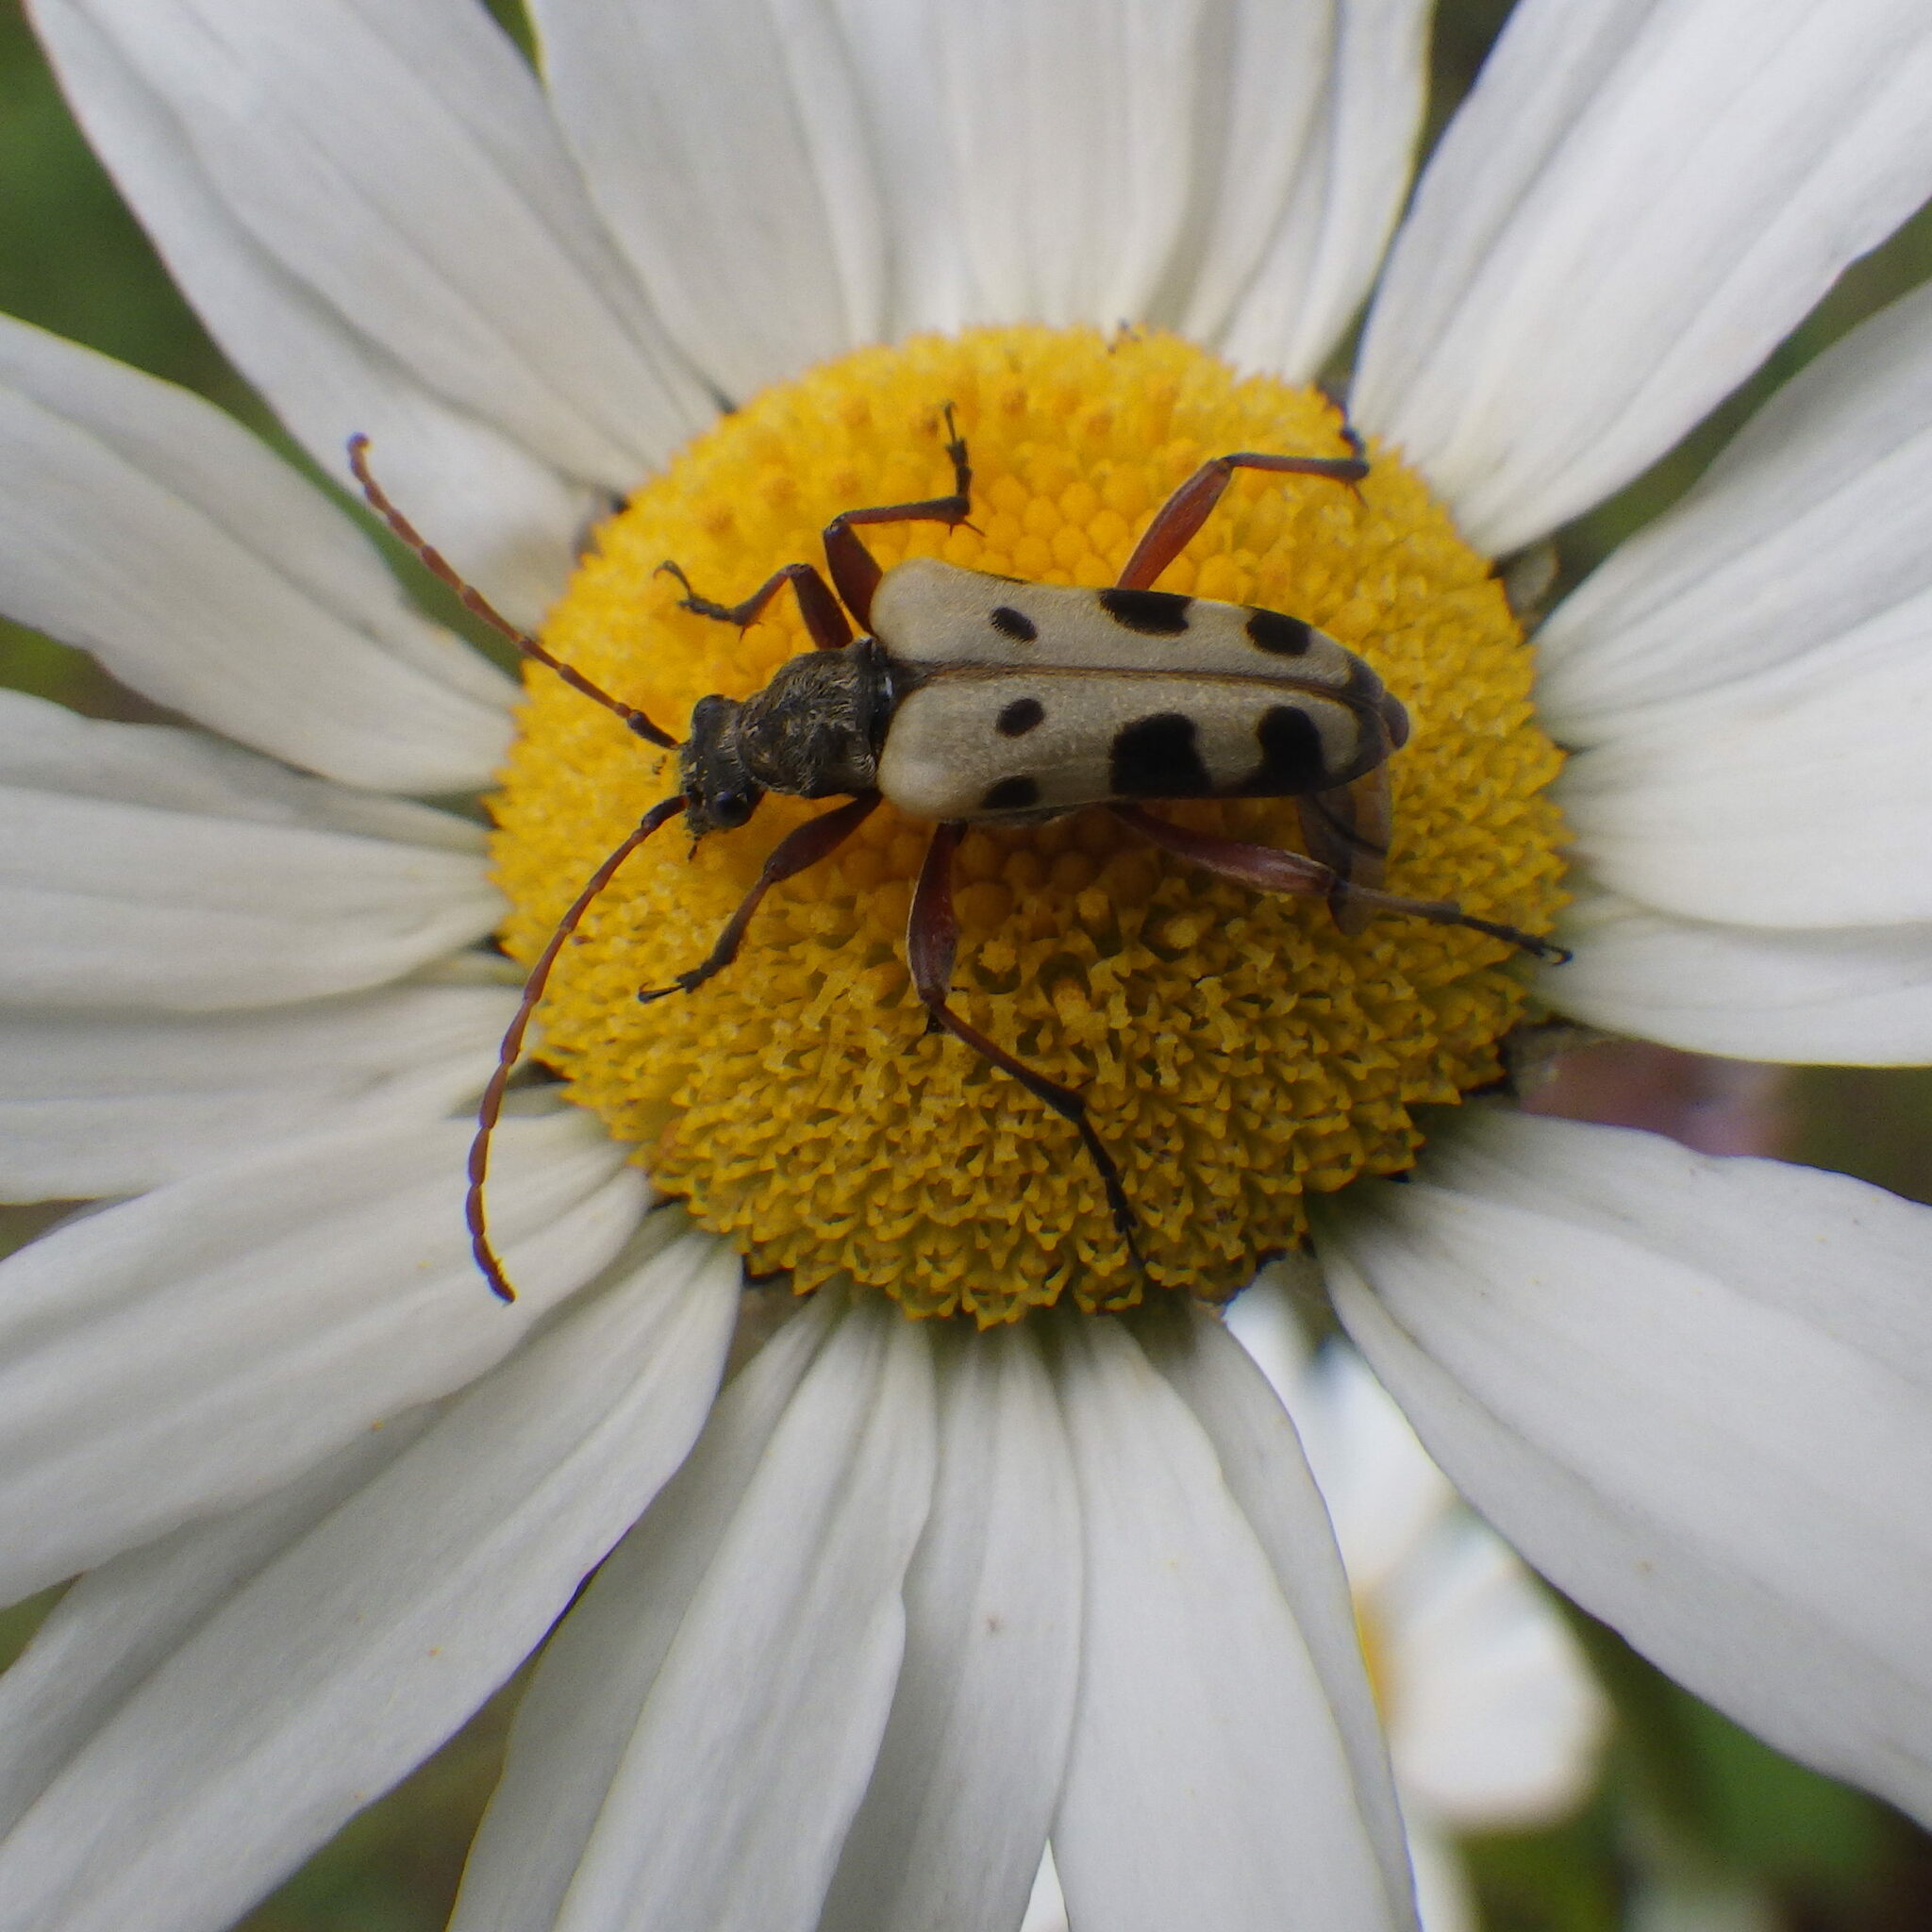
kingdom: Animalia
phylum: Arthropoda
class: Insecta
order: Coleoptera
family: Cerambycidae
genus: Evodinus
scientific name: Evodinus monticola
